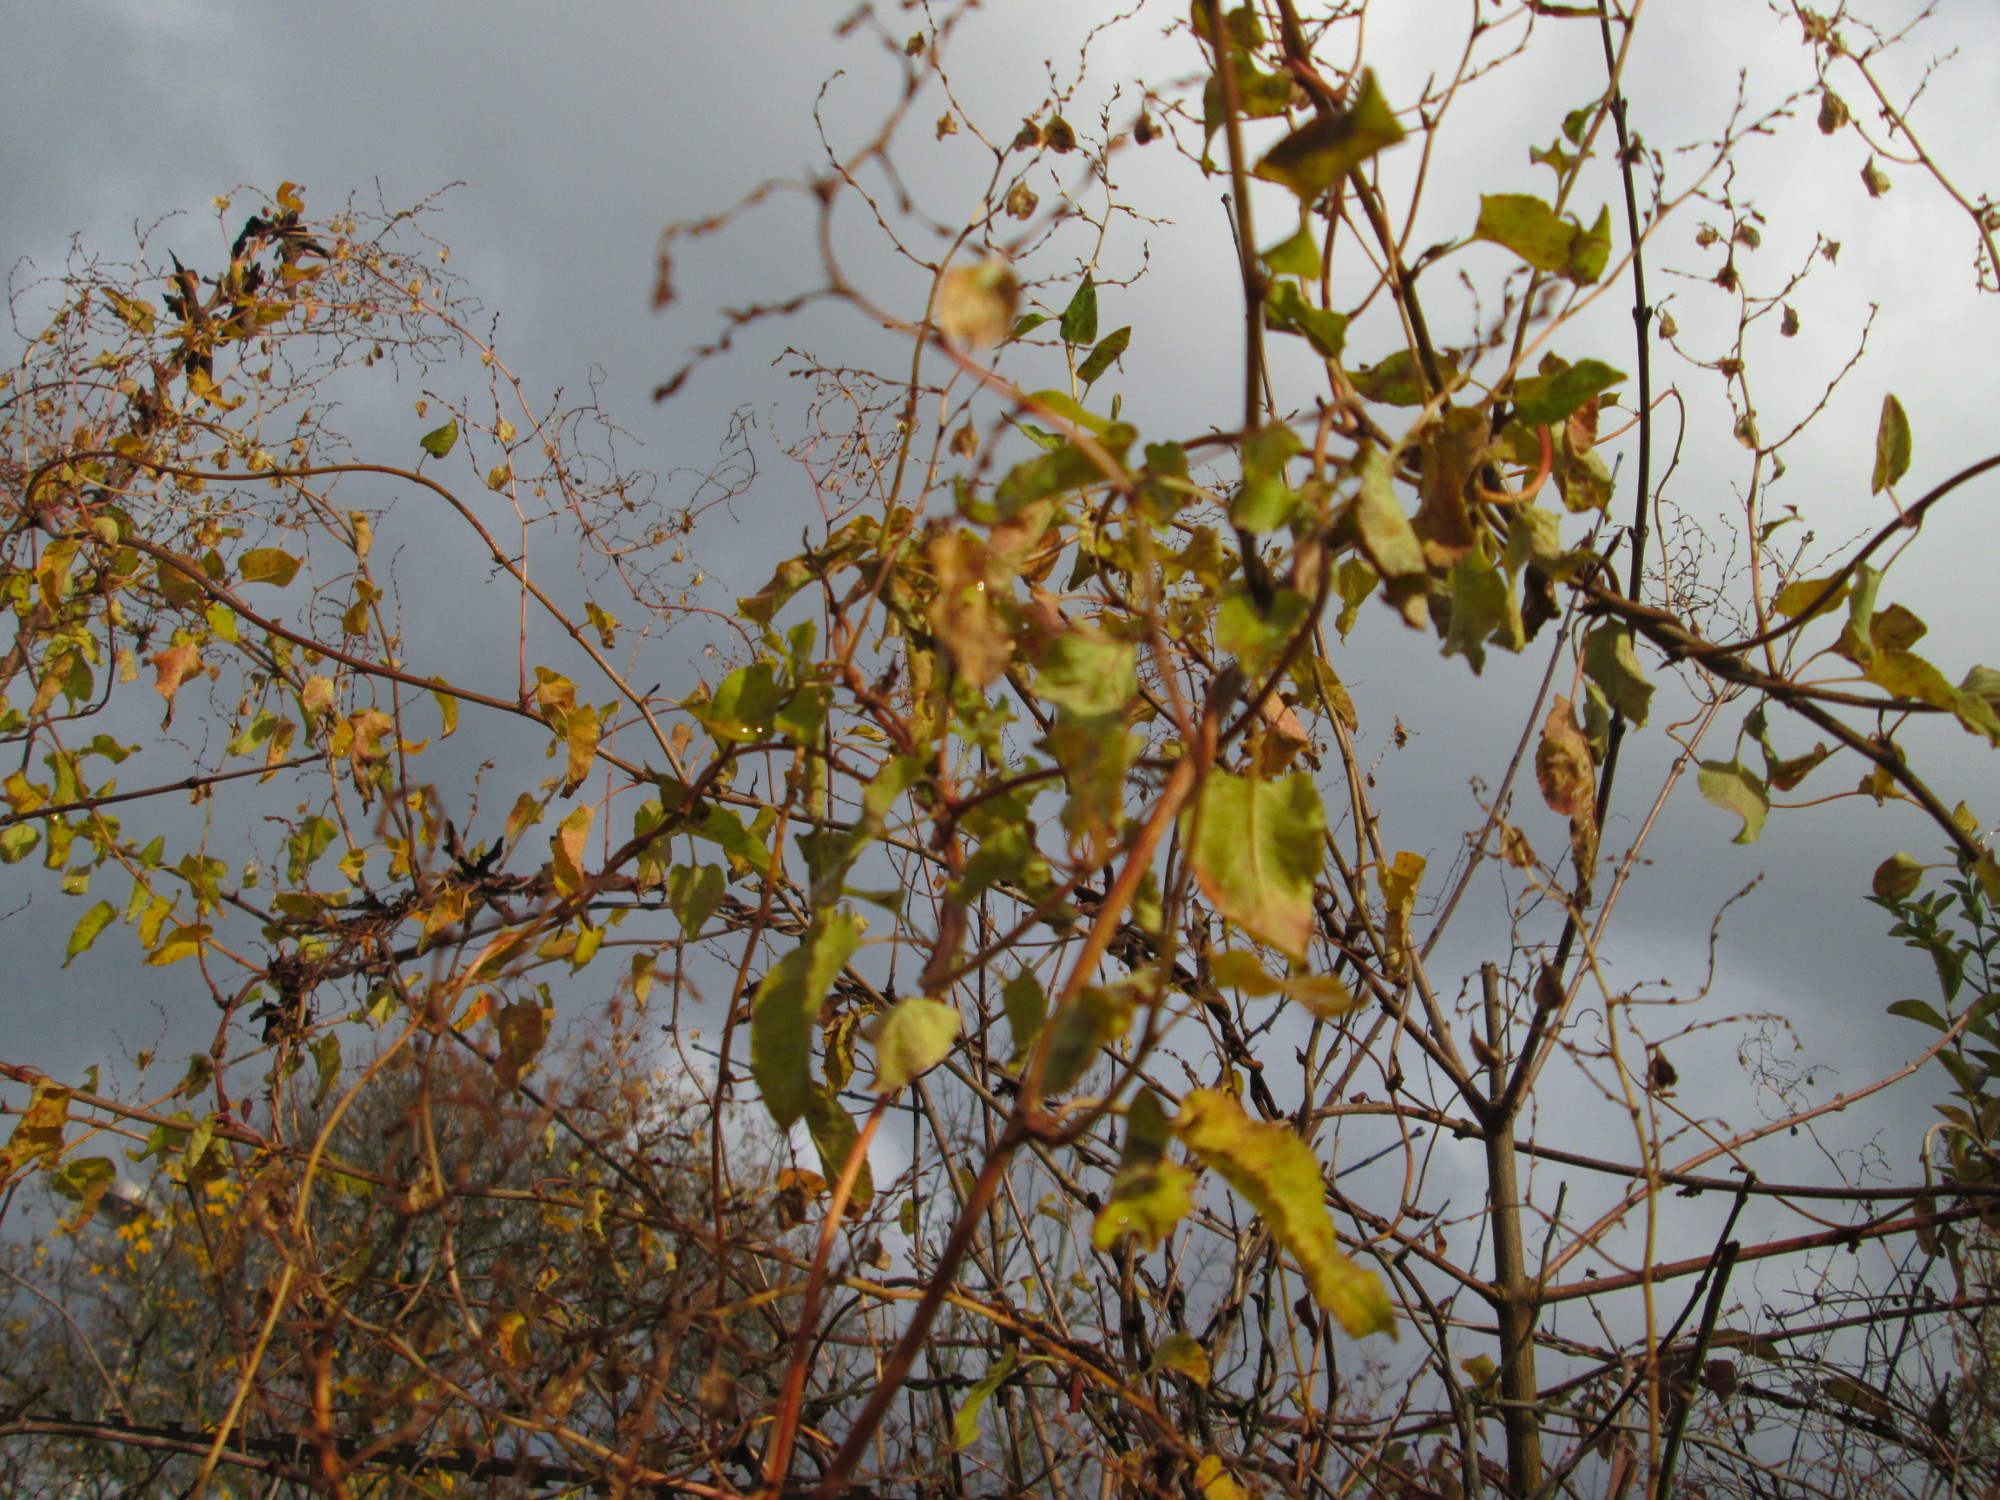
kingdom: Plantae
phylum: Tracheophyta
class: Magnoliopsida
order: Caryophyllales
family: Polygonaceae
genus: Fallopia
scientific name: Fallopia baldschuanica
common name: Russian-vine
